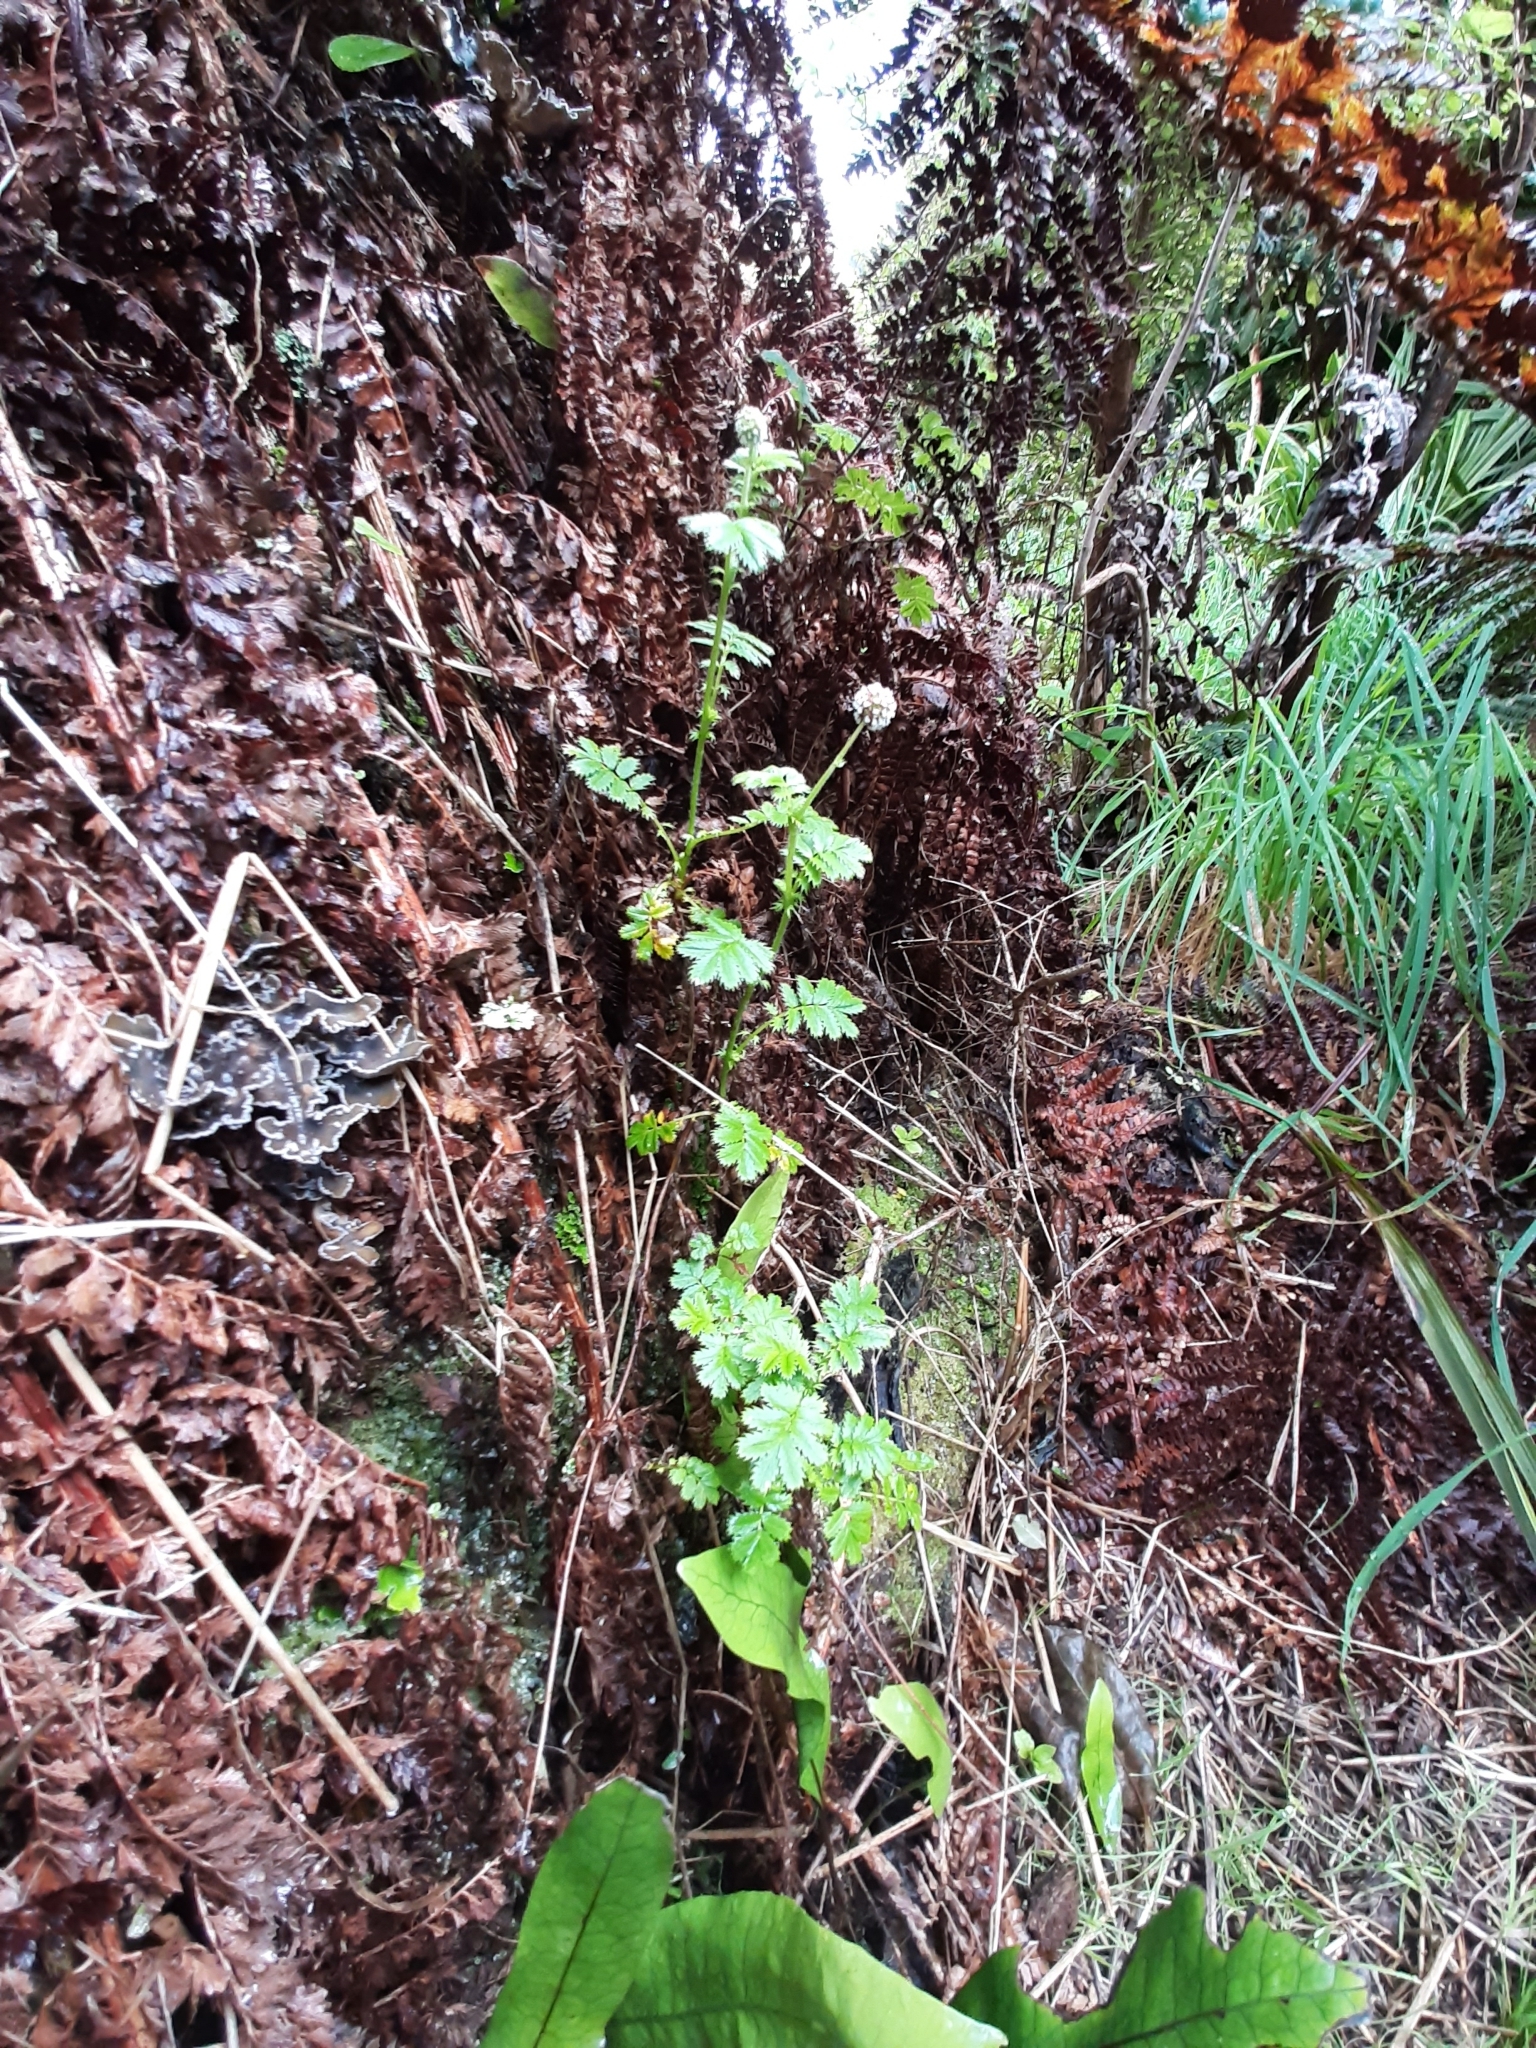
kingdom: Plantae
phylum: Tracheophyta
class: Magnoliopsida
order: Rosales
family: Rosaceae
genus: Acaena
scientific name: Acaena anserinifolia
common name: Bronze pirri-pirri-bur
